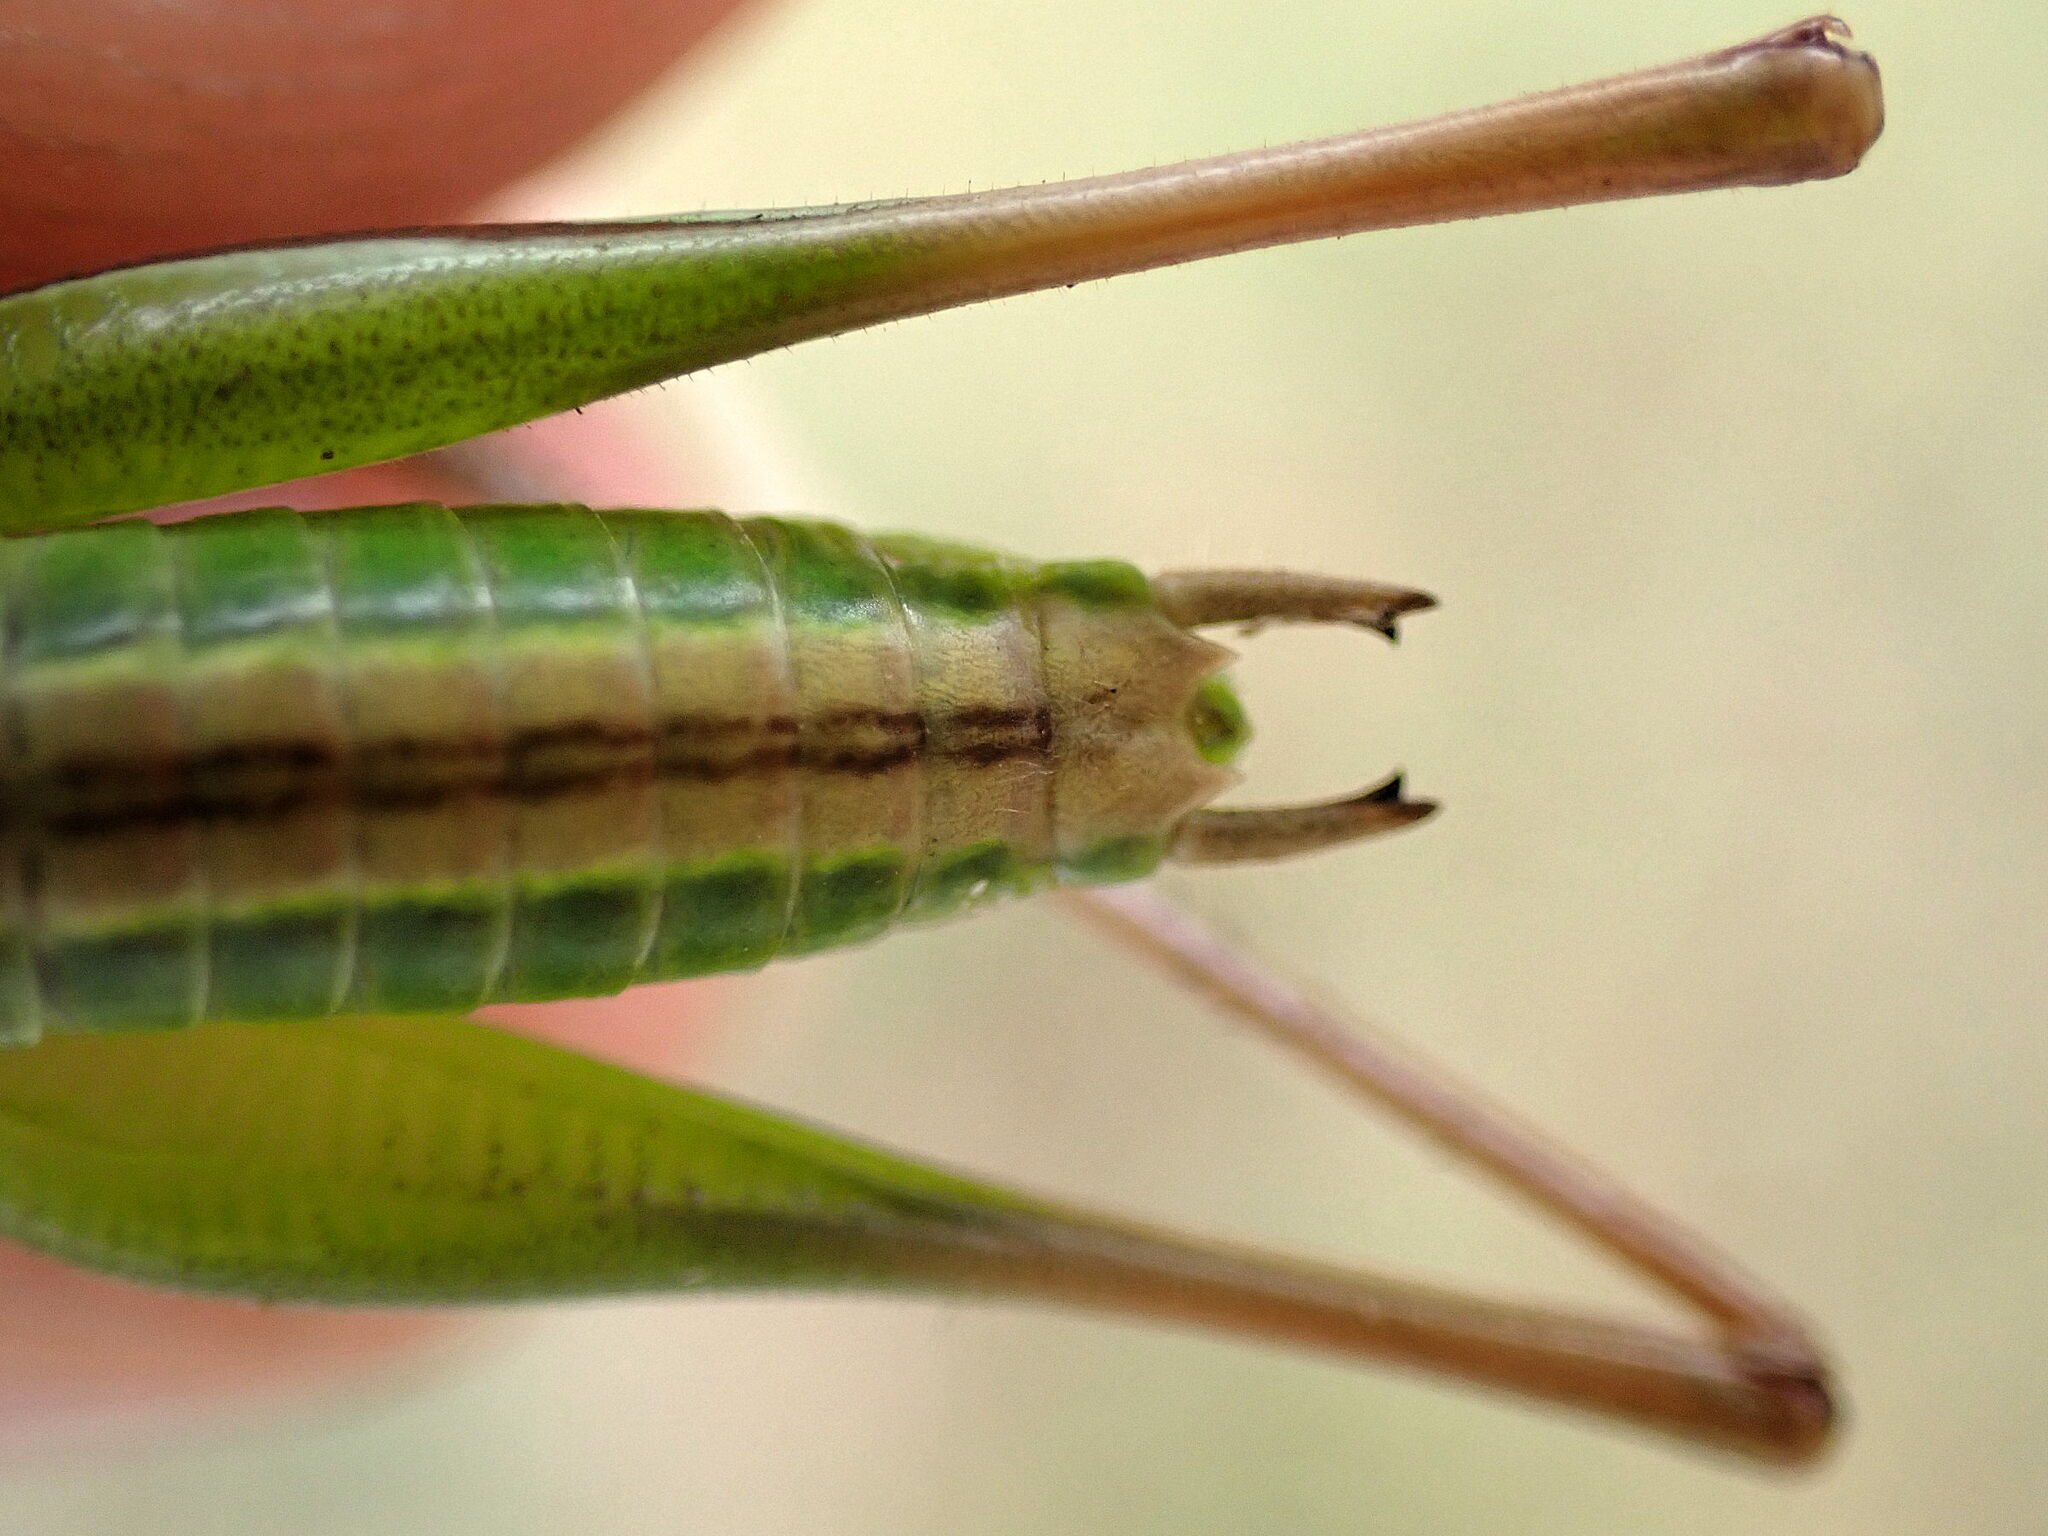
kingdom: Animalia
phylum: Arthropoda
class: Insecta
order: Orthoptera
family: Tettigoniidae
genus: Bicolorana
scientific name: Bicolorana bicolor
